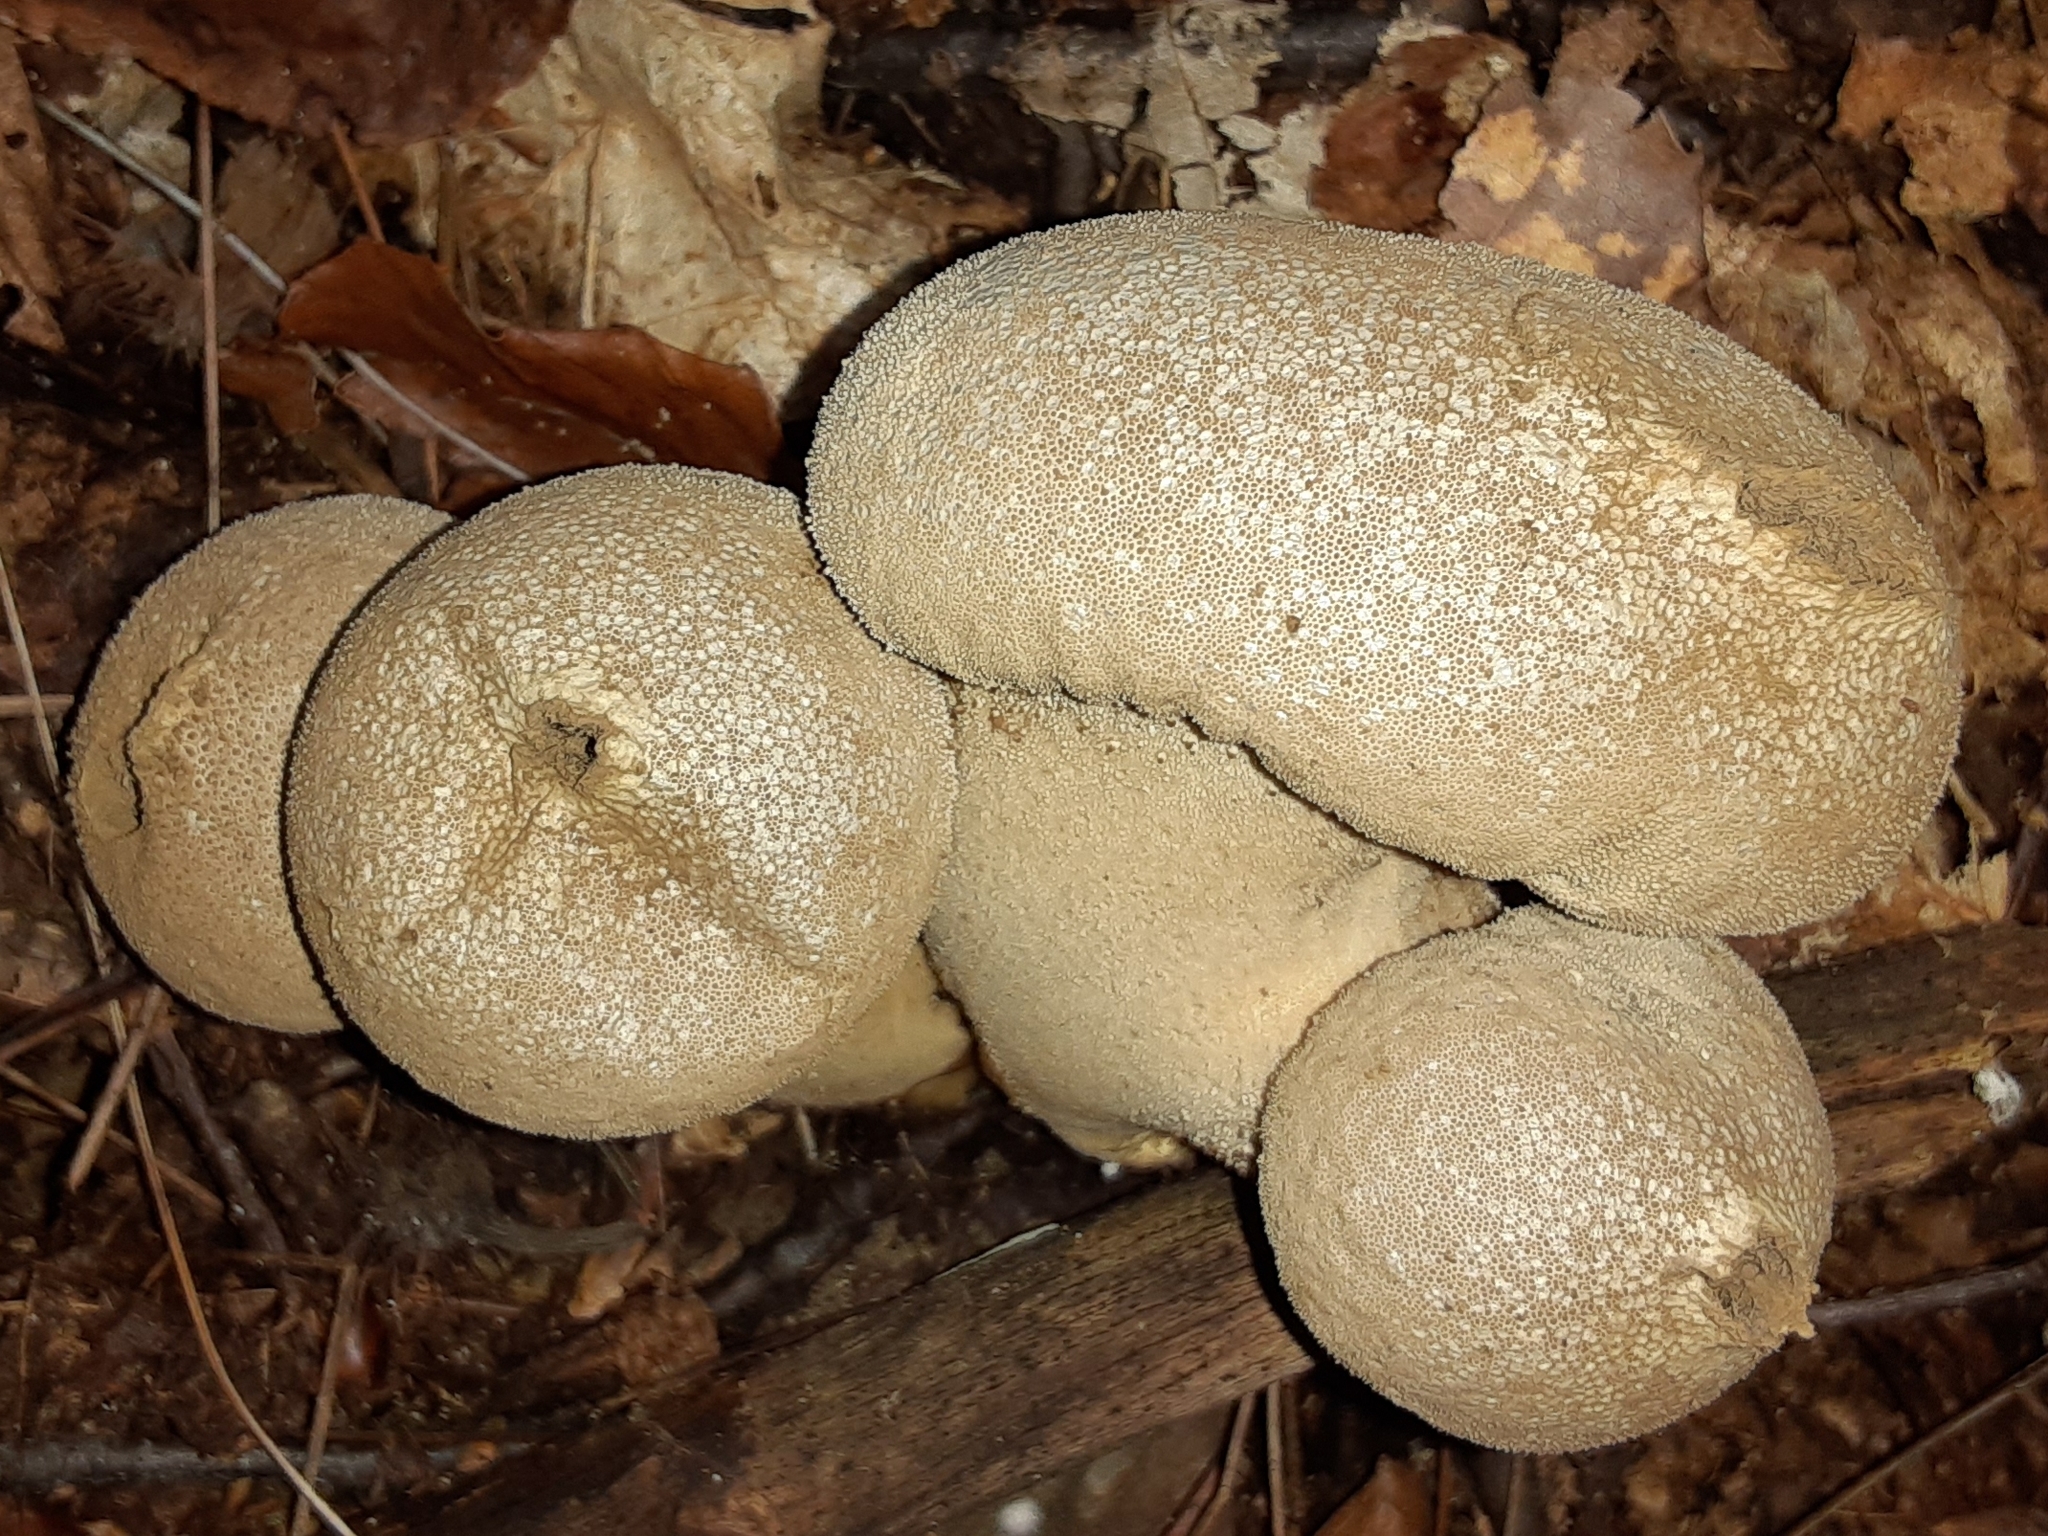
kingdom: Fungi
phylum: Basidiomycota
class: Agaricomycetes
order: Agaricales
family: Lycoperdaceae
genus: Lycoperdon
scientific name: Lycoperdon perlatum
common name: Common puffball
